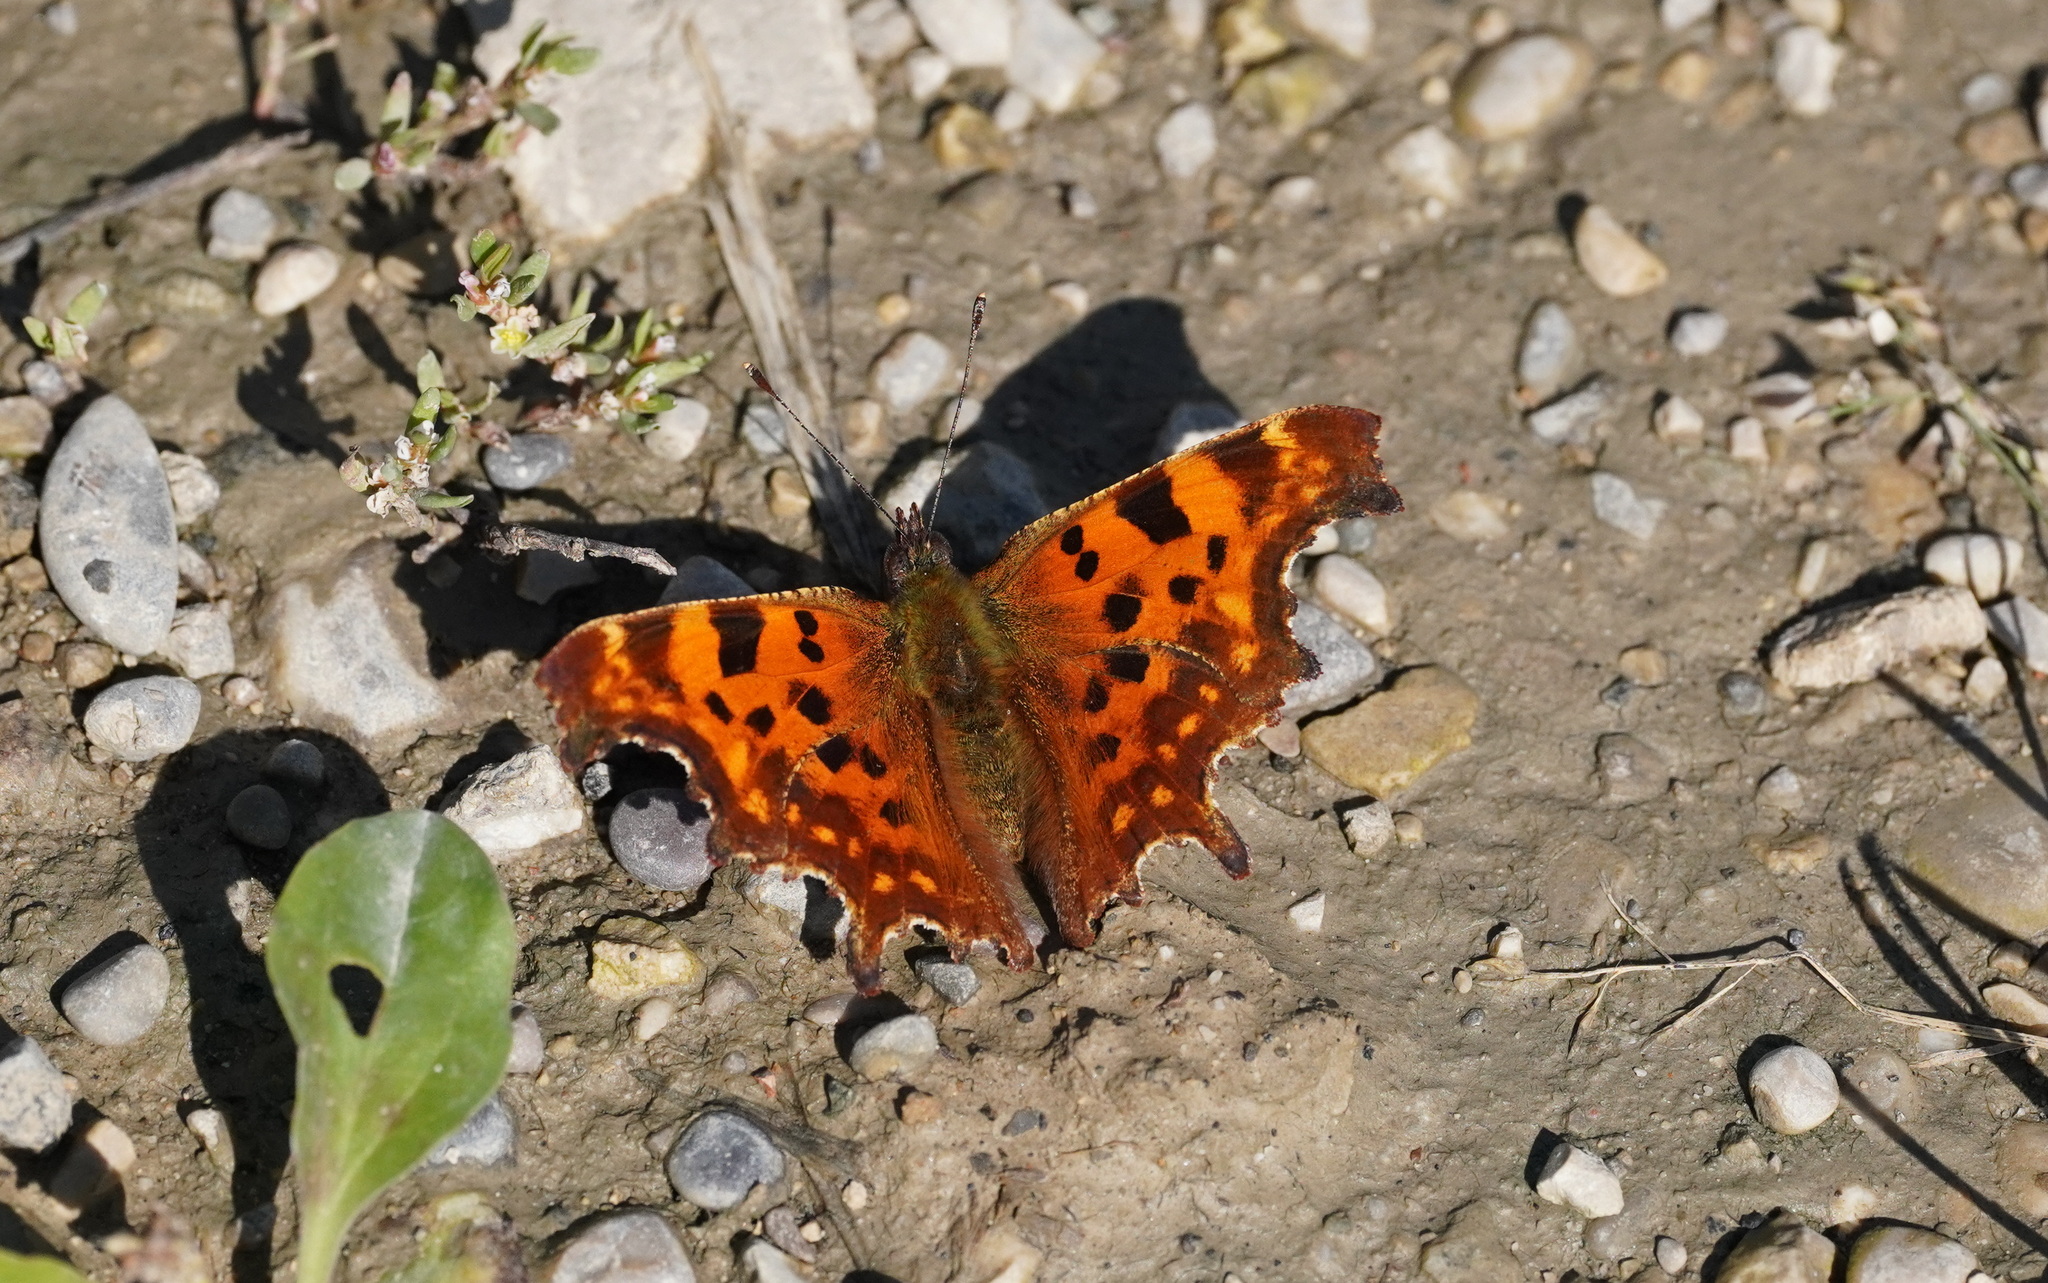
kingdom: Animalia
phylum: Arthropoda
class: Insecta
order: Lepidoptera
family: Nymphalidae
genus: Polygonia
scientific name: Polygonia c-album
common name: Comma
